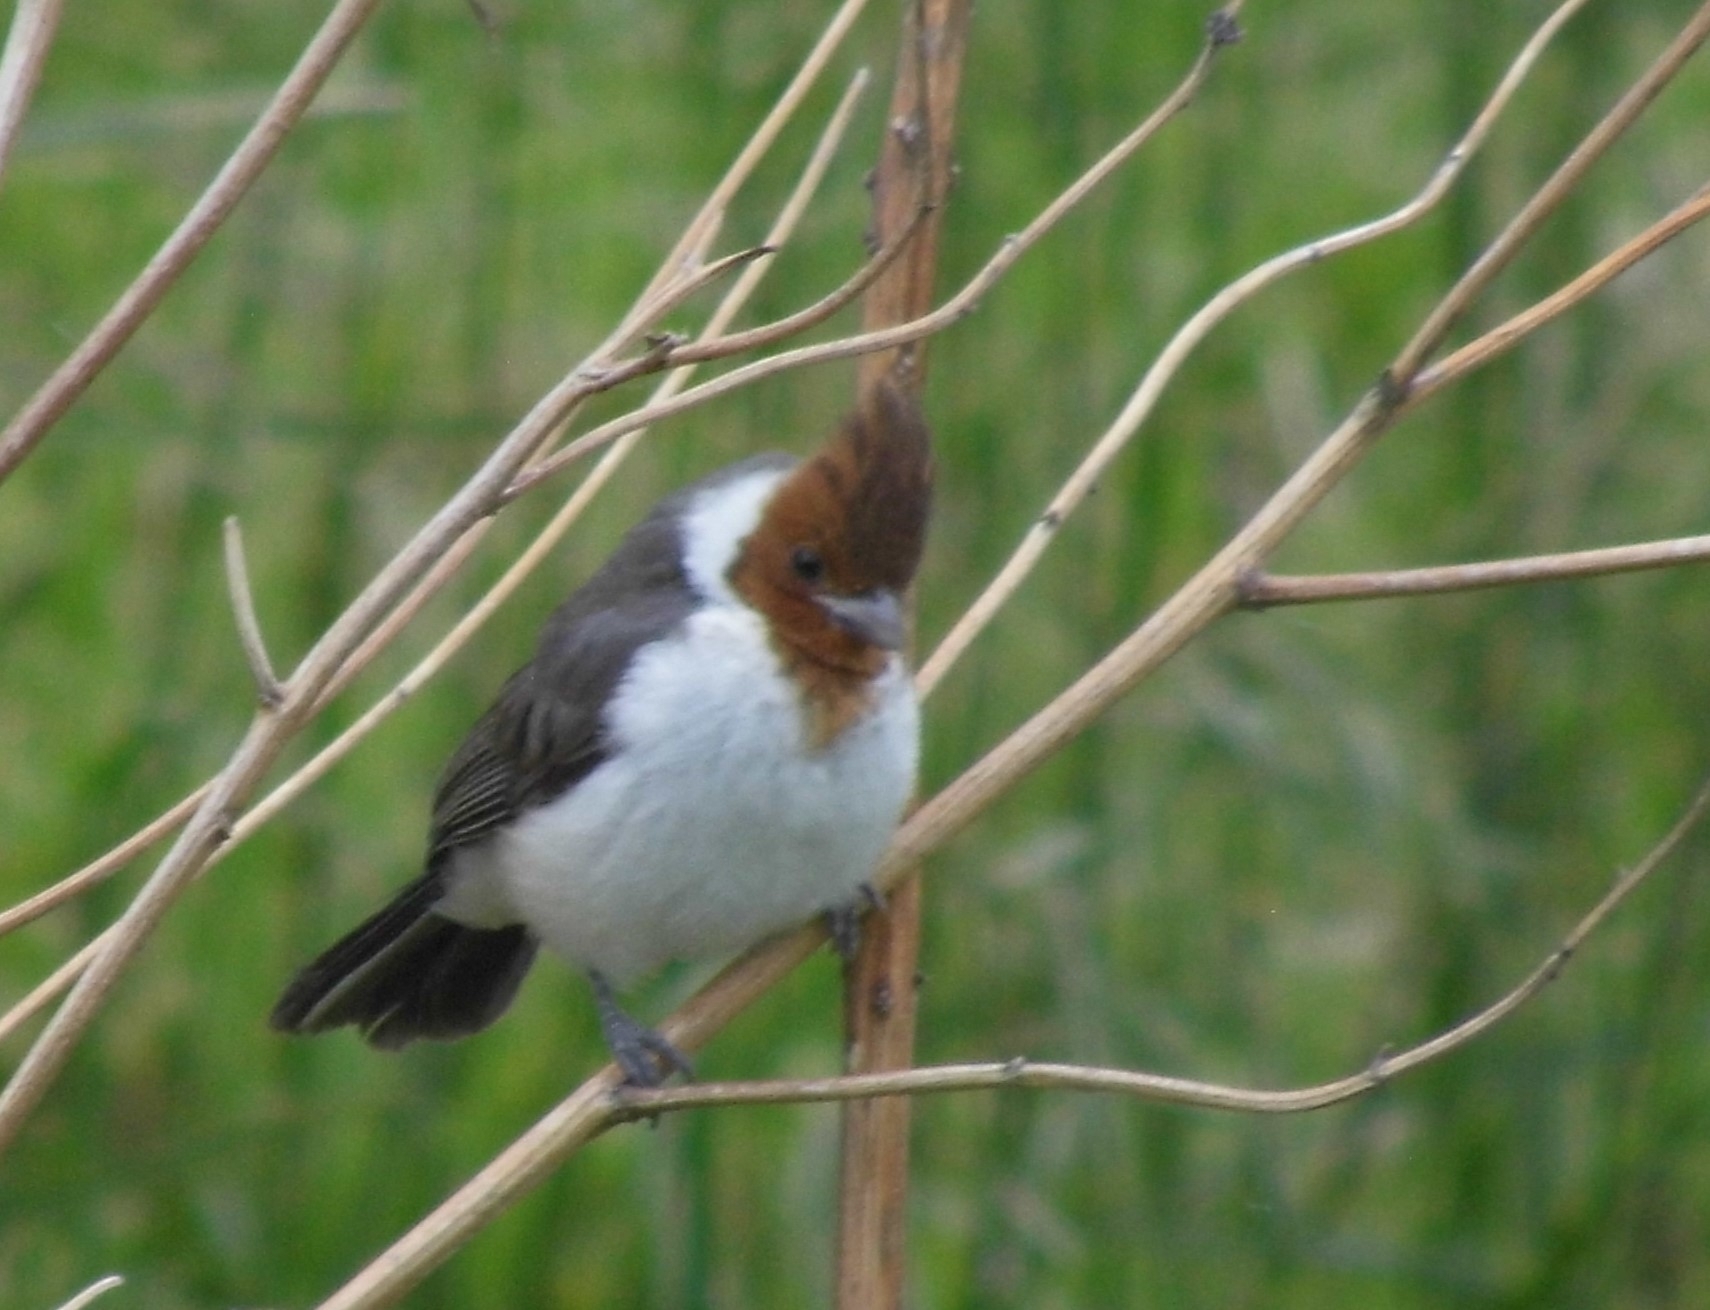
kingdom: Animalia
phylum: Chordata
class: Aves
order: Passeriformes
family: Thraupidae
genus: Paroaria
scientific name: Paroaria coronata
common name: Red-crested cardinal
